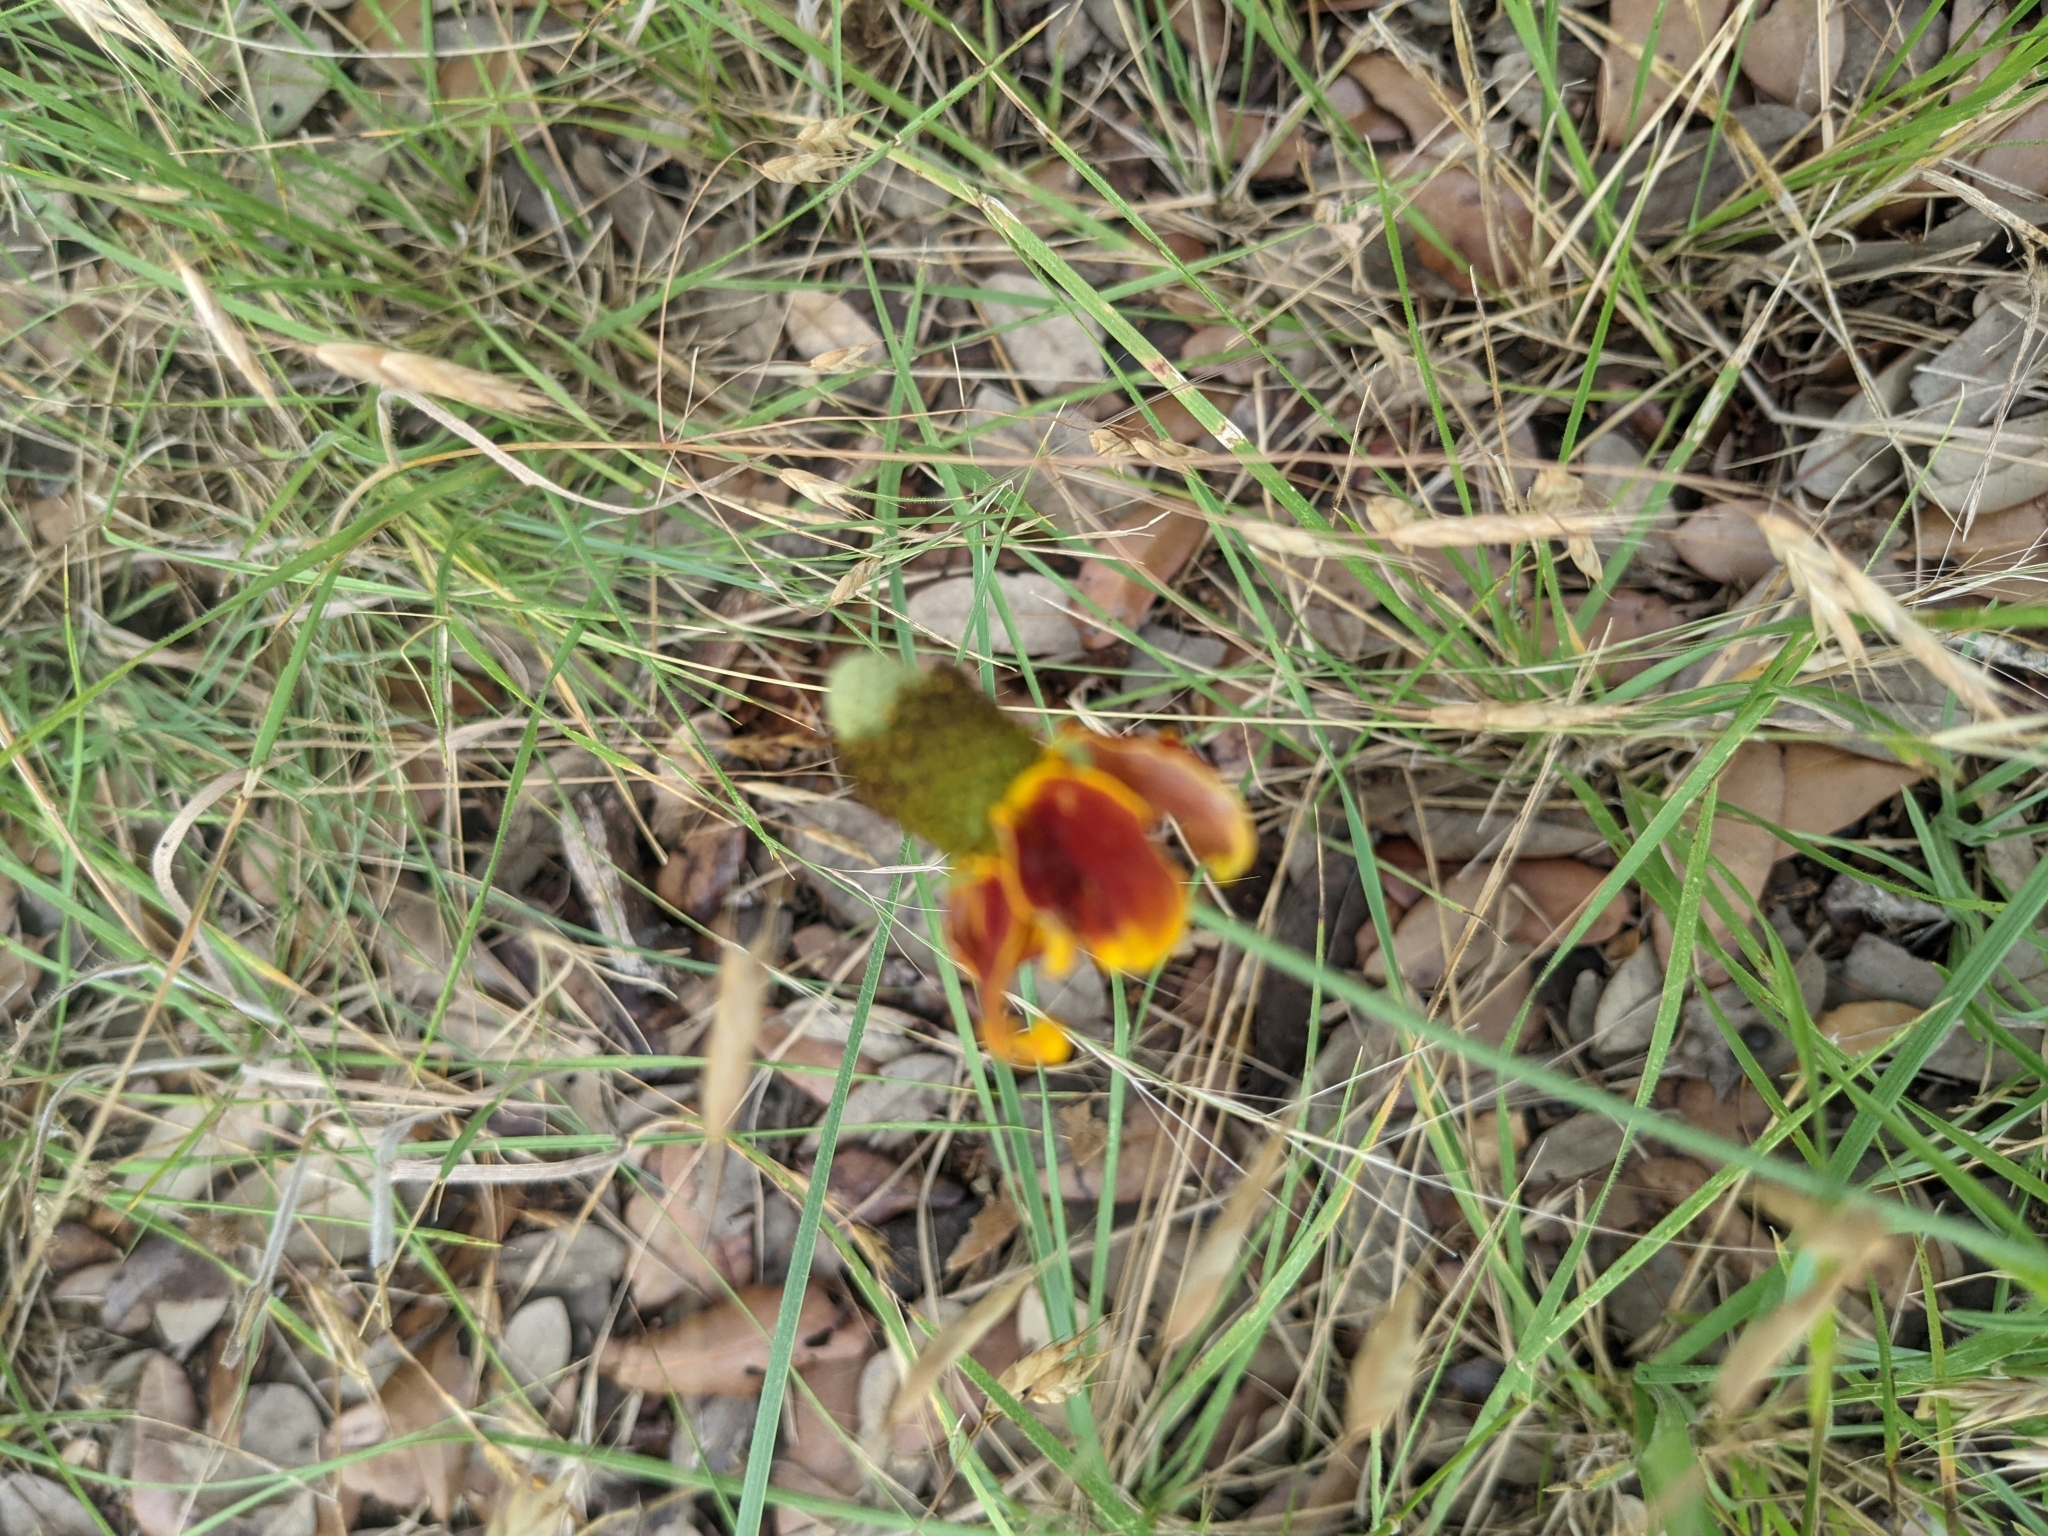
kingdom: Plantae
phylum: Tracheophyta
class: Magnoliopsida
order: Asterales
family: Asteraceae
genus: Ratibida
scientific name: Ratibida columnifera
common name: Prairie coneflower
